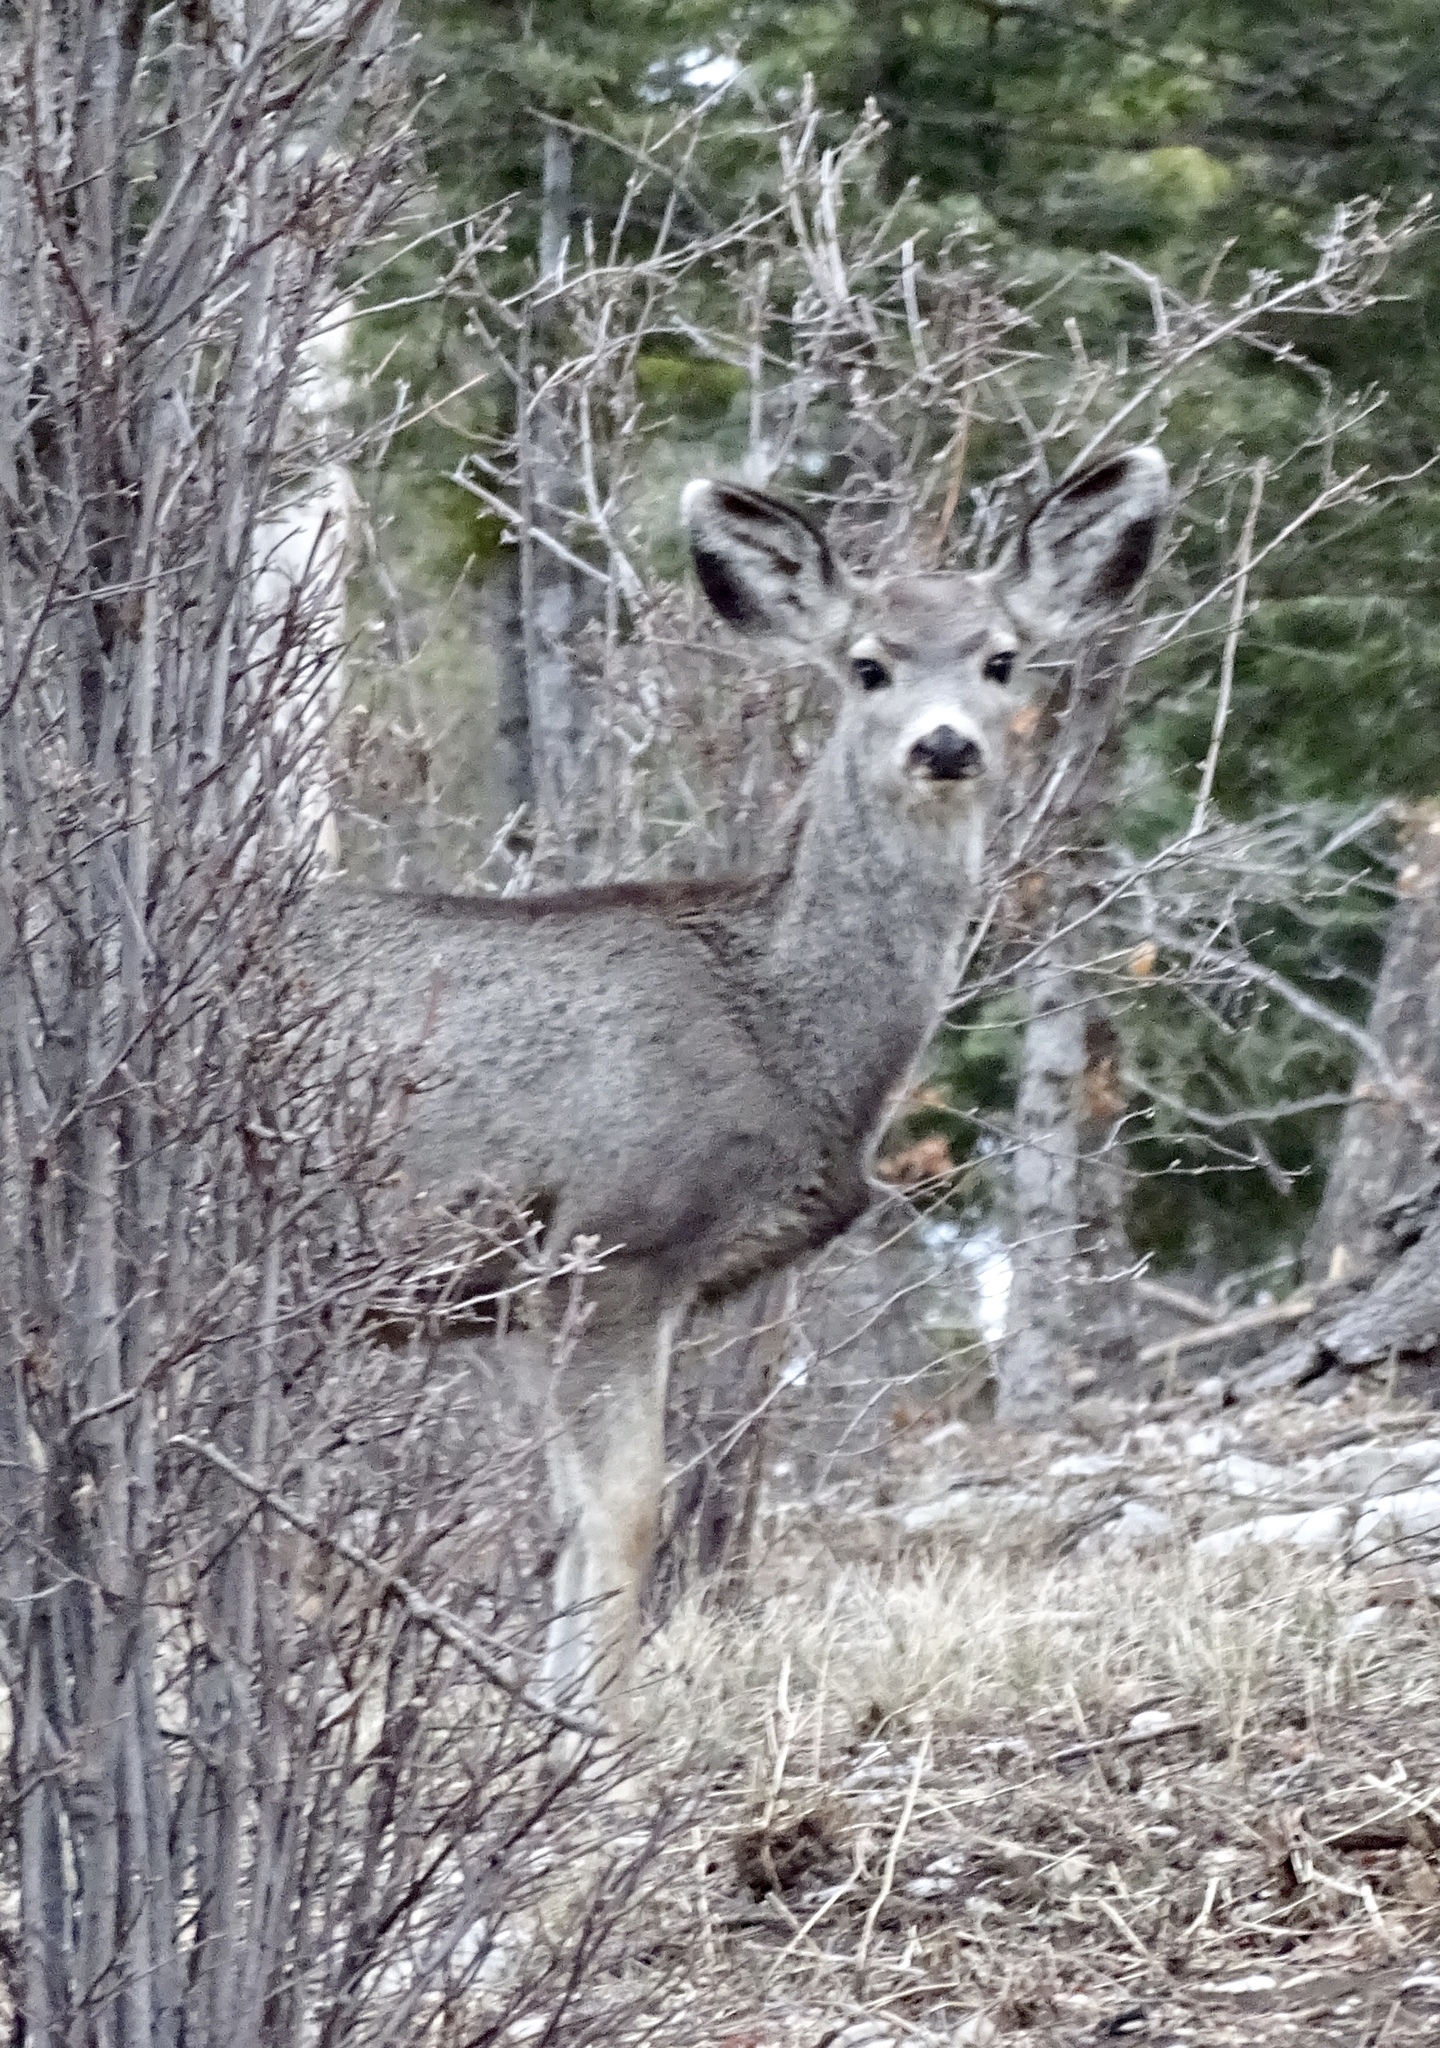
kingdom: Animalia
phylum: Chordata
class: Mammalia
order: Artiodactyla
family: Cervidae
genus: Odocoileus
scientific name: Odocoileus hemionus
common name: Mule deer
